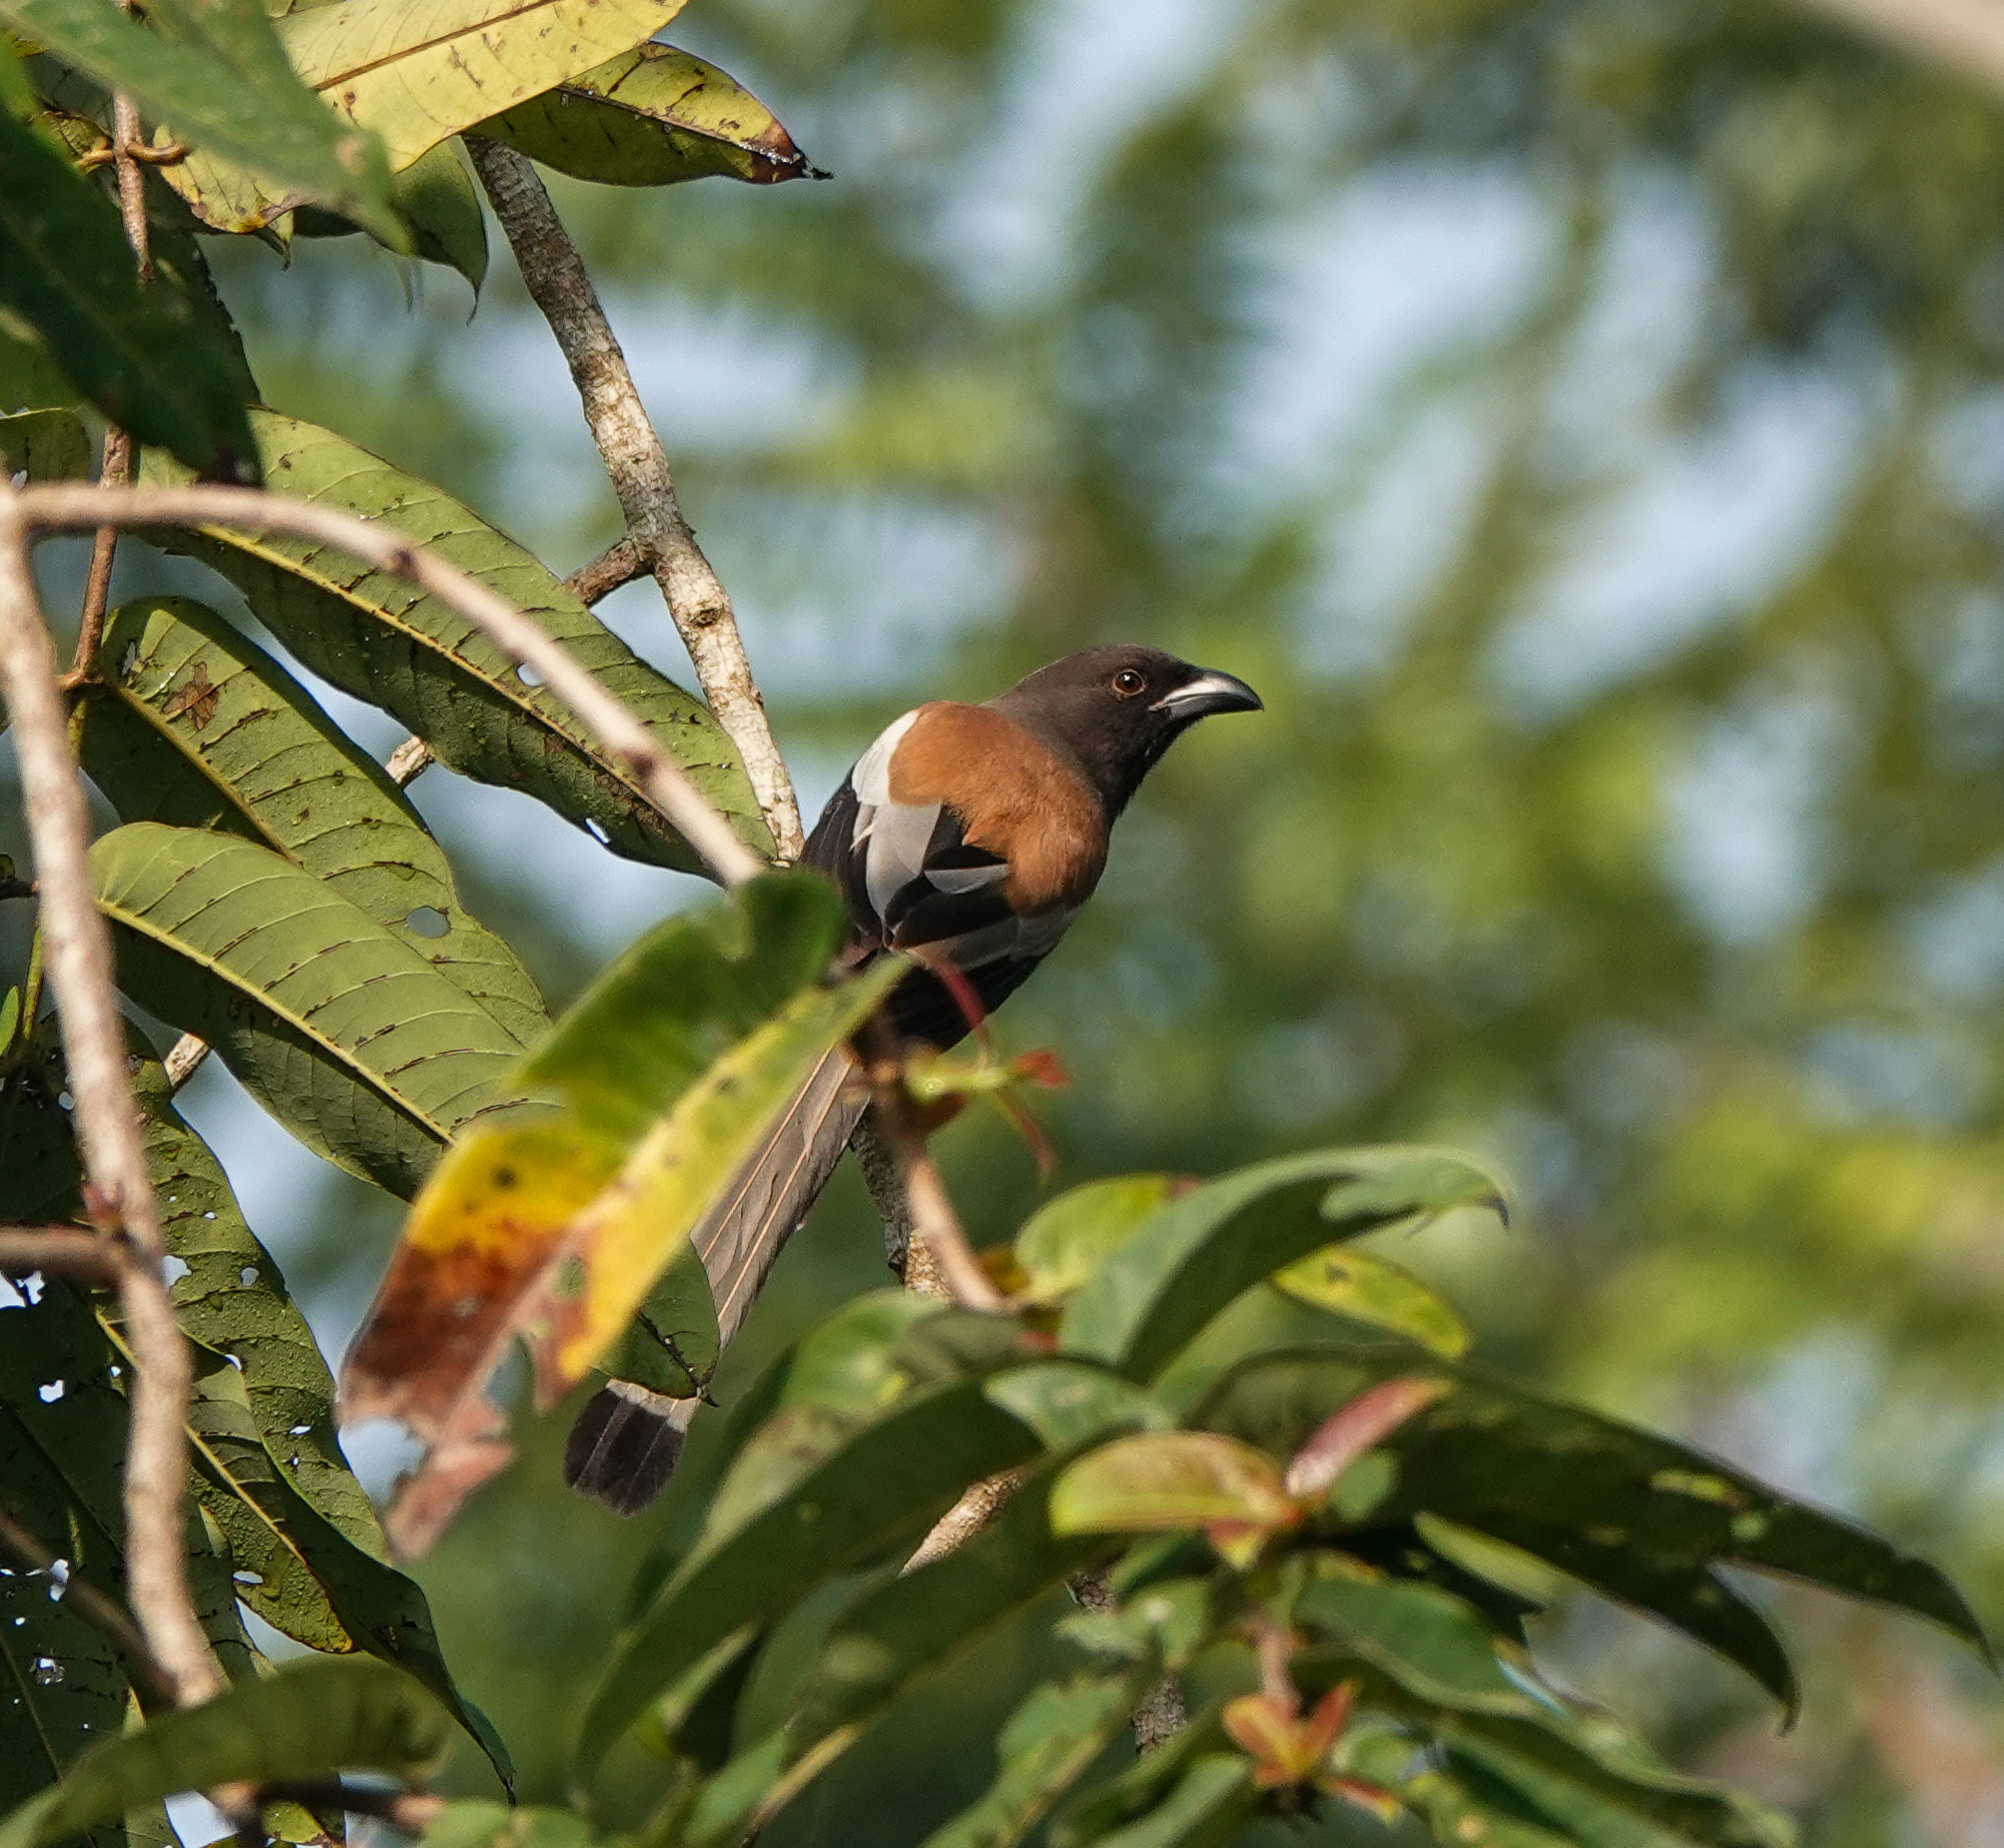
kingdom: Animalia
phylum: Chordata
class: Aves
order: Passeriformes
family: Corvidae
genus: Dendrocitta
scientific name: Dendrocitta vagabunda
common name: Rufous treepie
